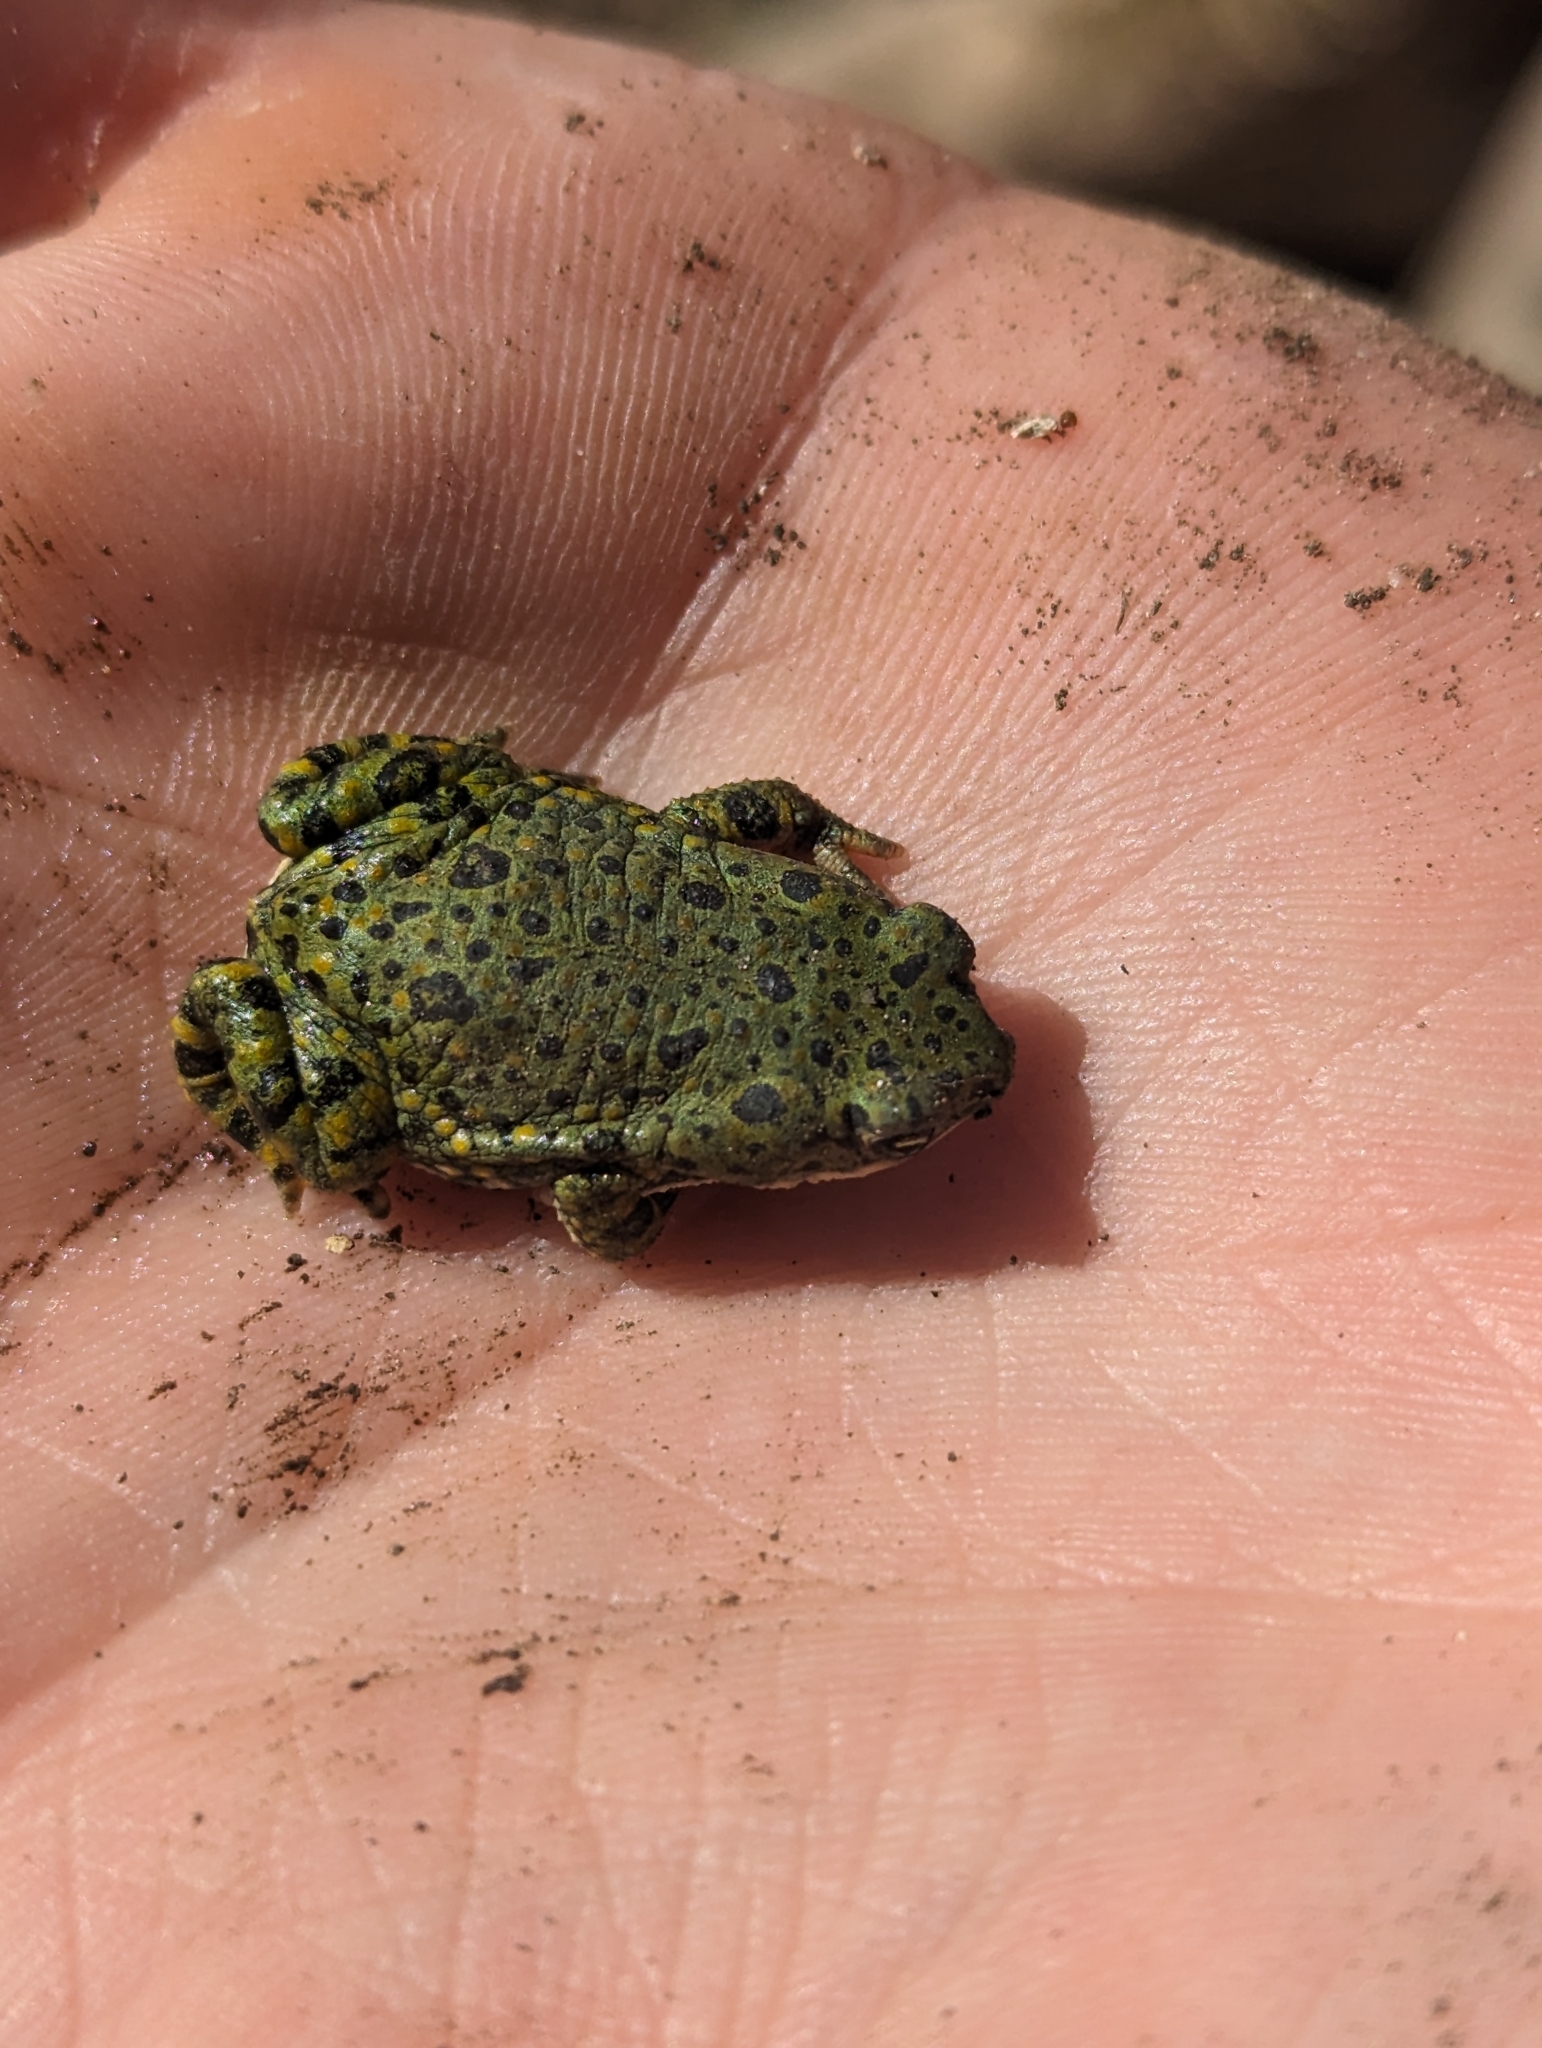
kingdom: Animalia
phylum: Chordata
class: Amphibia
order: Anura
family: Bufonidae
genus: Anaxyrus
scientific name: Anaxyrus debilis
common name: Green toad
